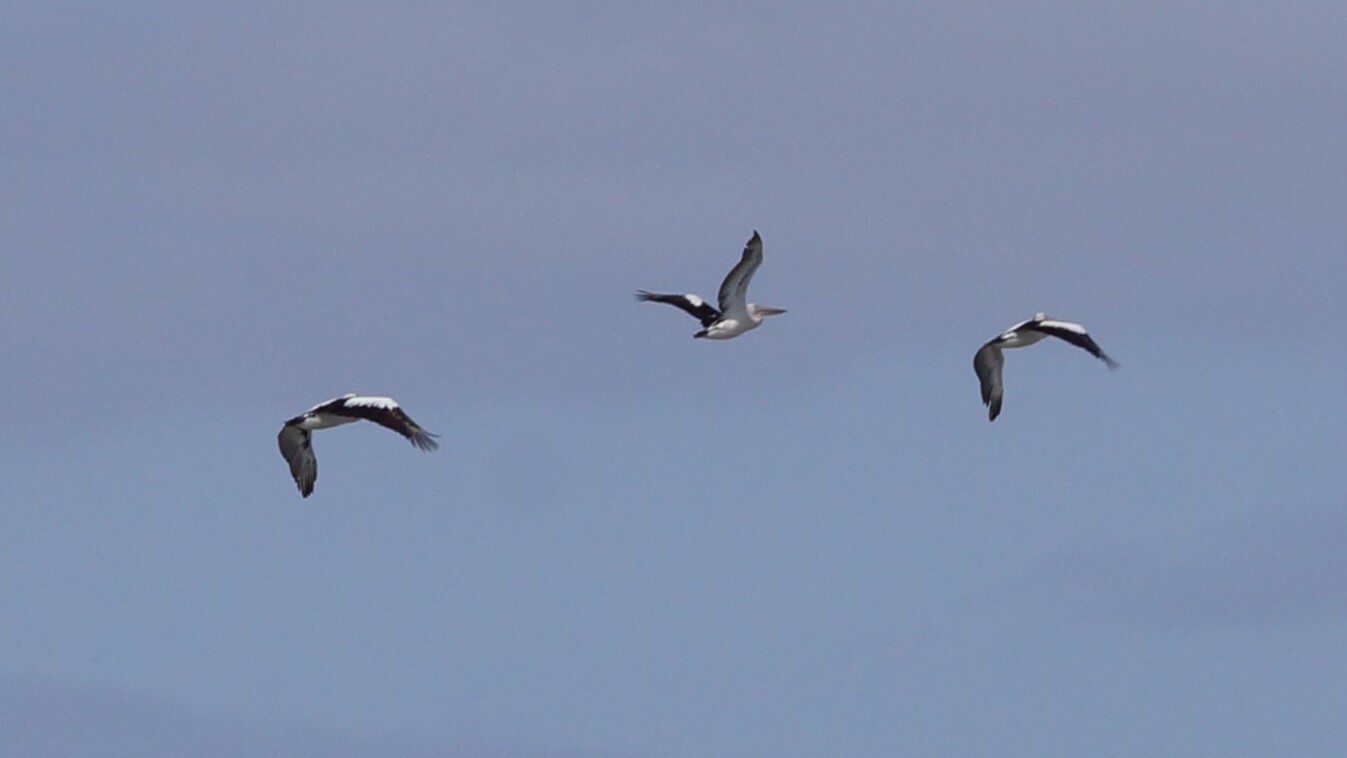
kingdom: Animalia
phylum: Chordata
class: Aves
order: Pelecaniformes
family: Pelecanidae
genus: Pelecanus
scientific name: Pelecanus conspicillatus
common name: Australian pelican
